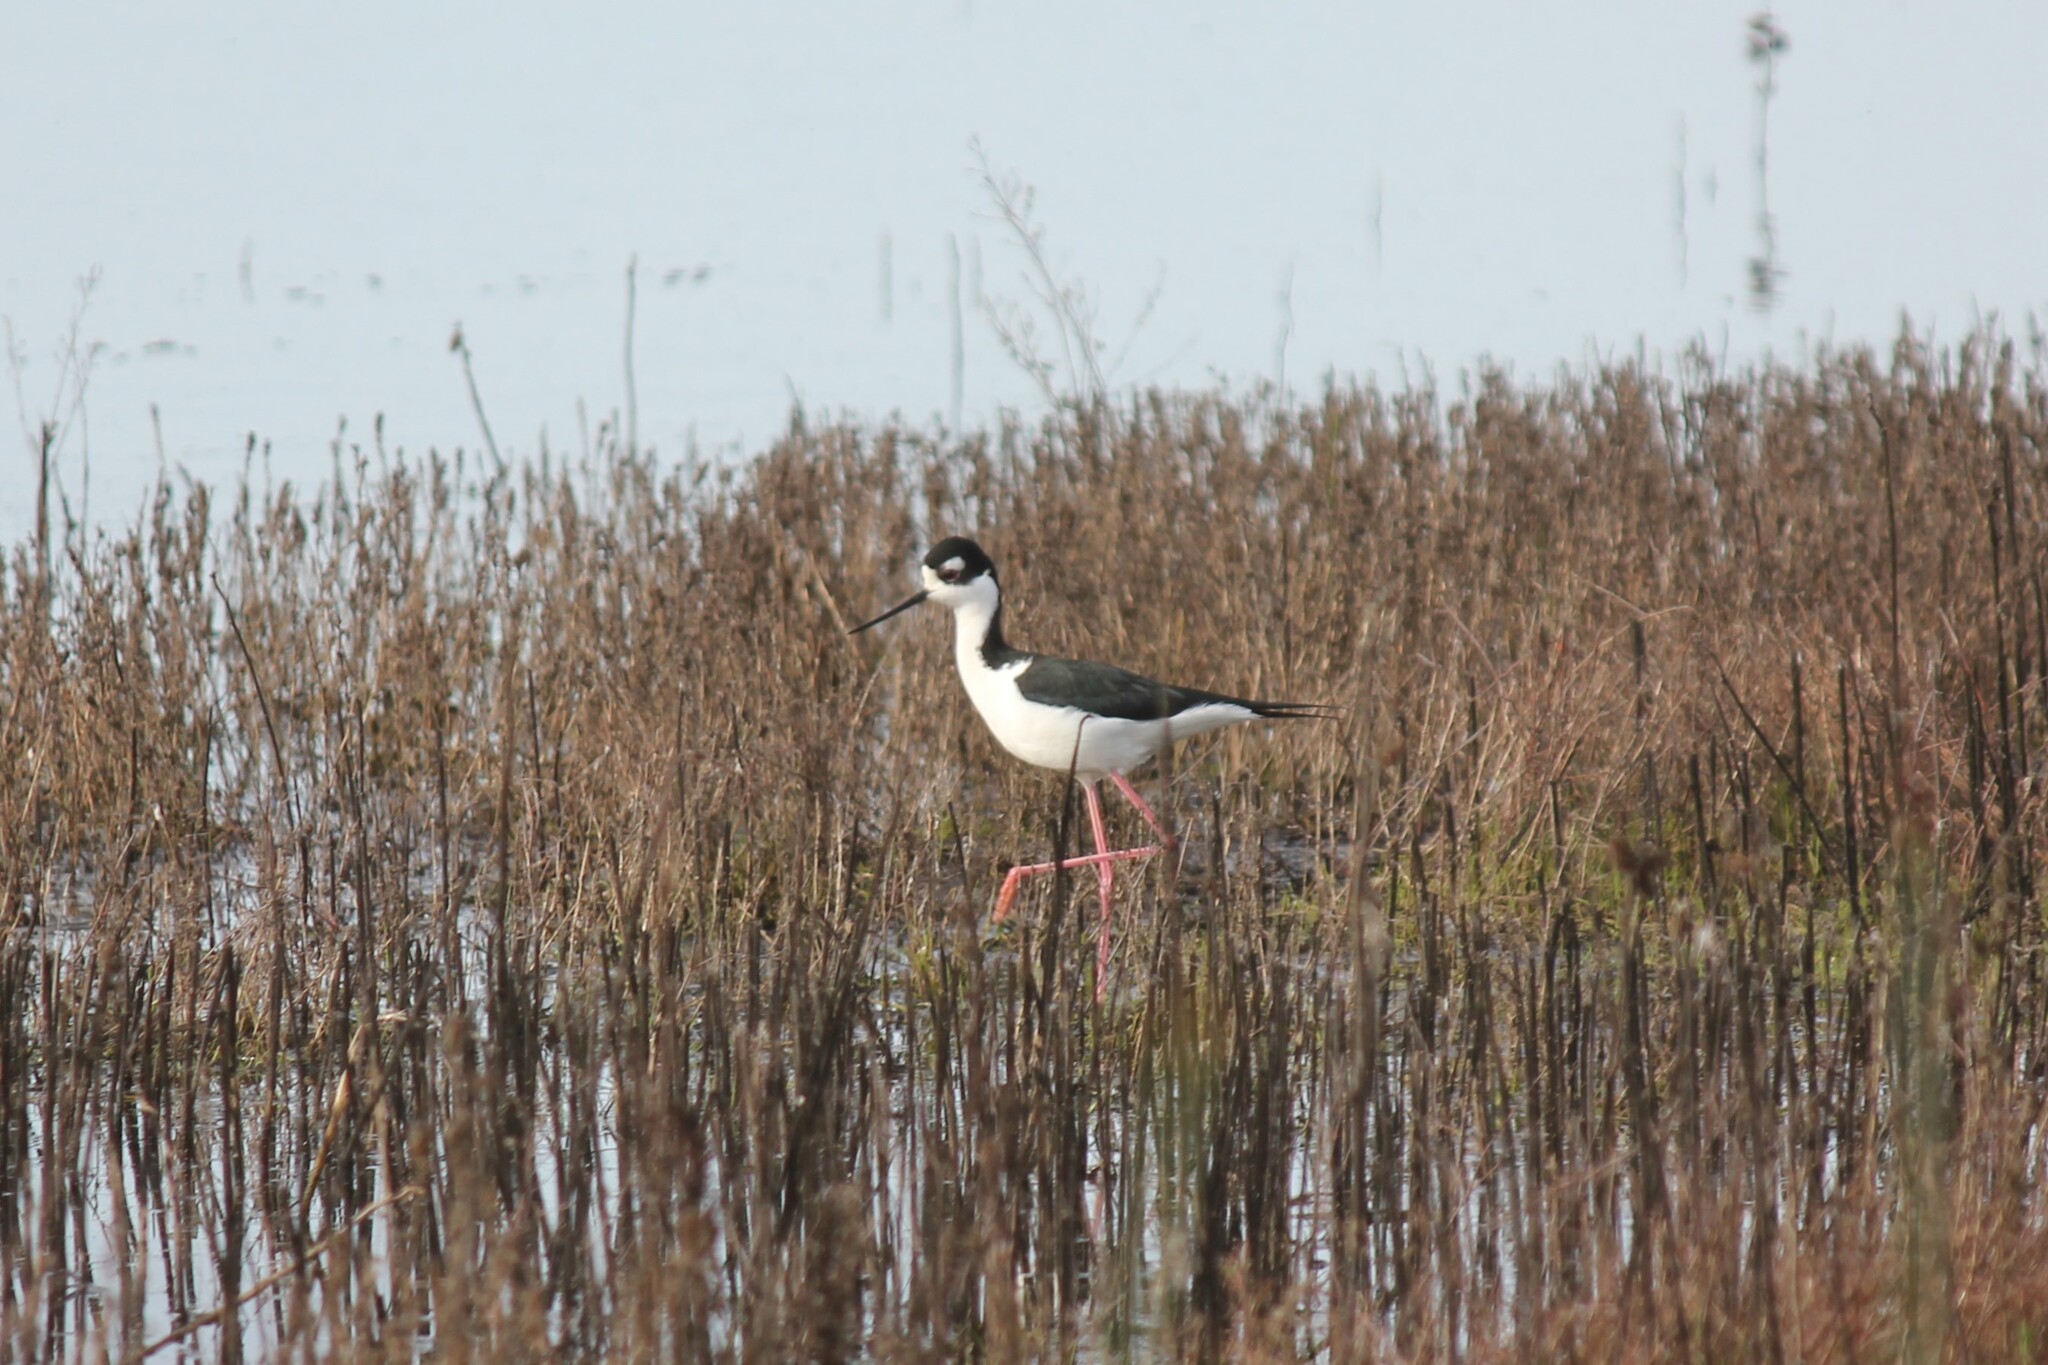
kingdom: Animalia
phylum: Chordata
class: Aves
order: Charadriiformes
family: Recurvirostridae
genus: Himantopus
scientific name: Himantopus mexicanus
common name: Black-necked stilt
